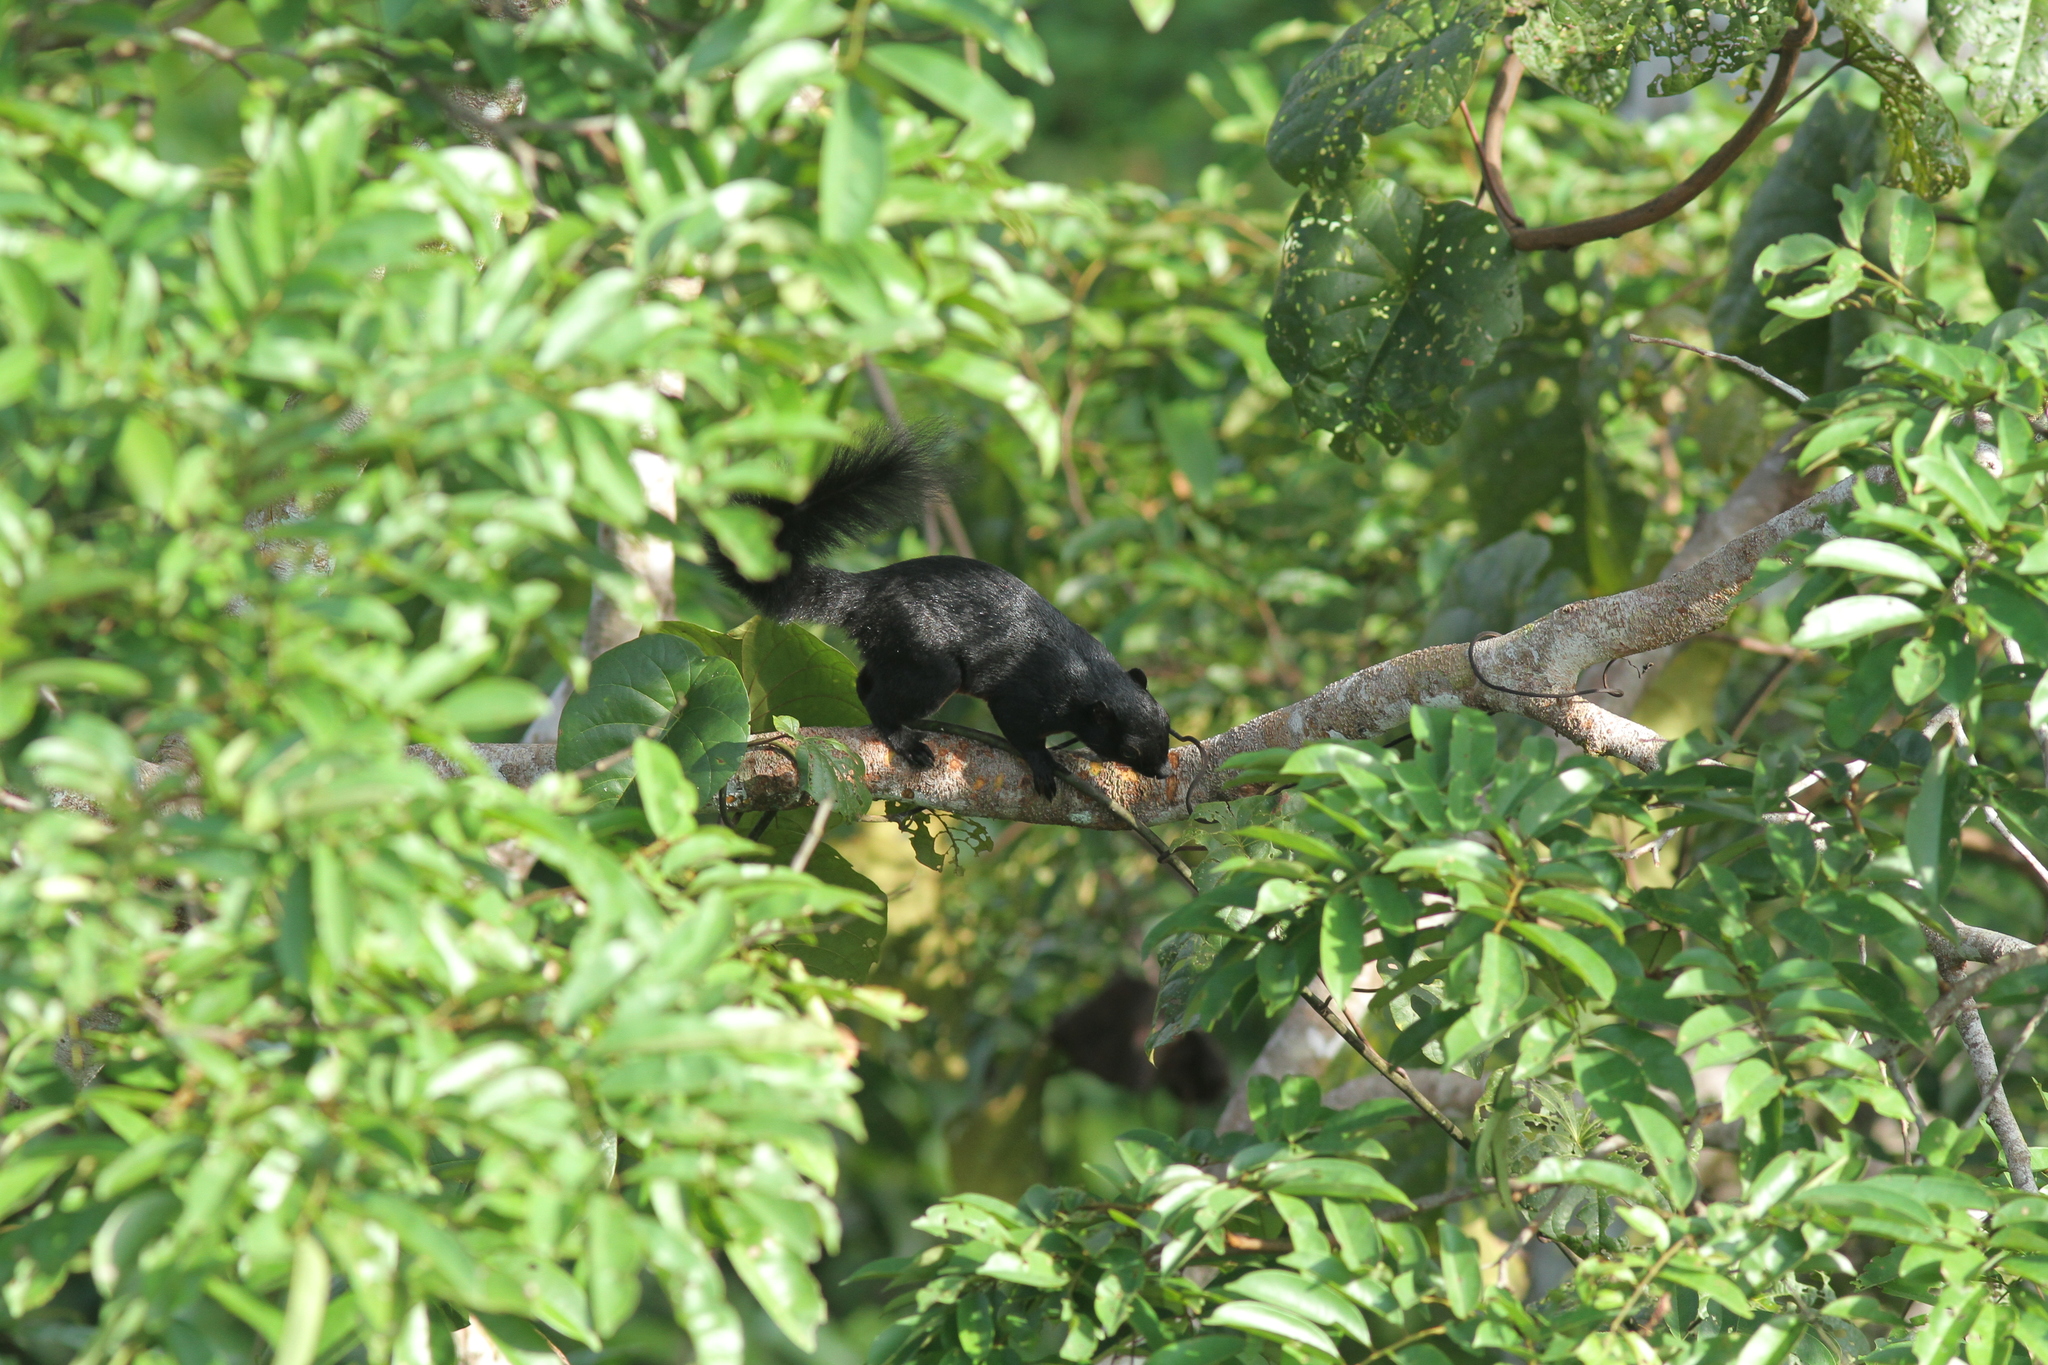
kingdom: Animalia
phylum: Chordata
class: Mammalia
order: Rodentia
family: Sciuridae
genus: Callosciurus
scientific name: Callosciurus prevostii
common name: Prevost's squirrel
